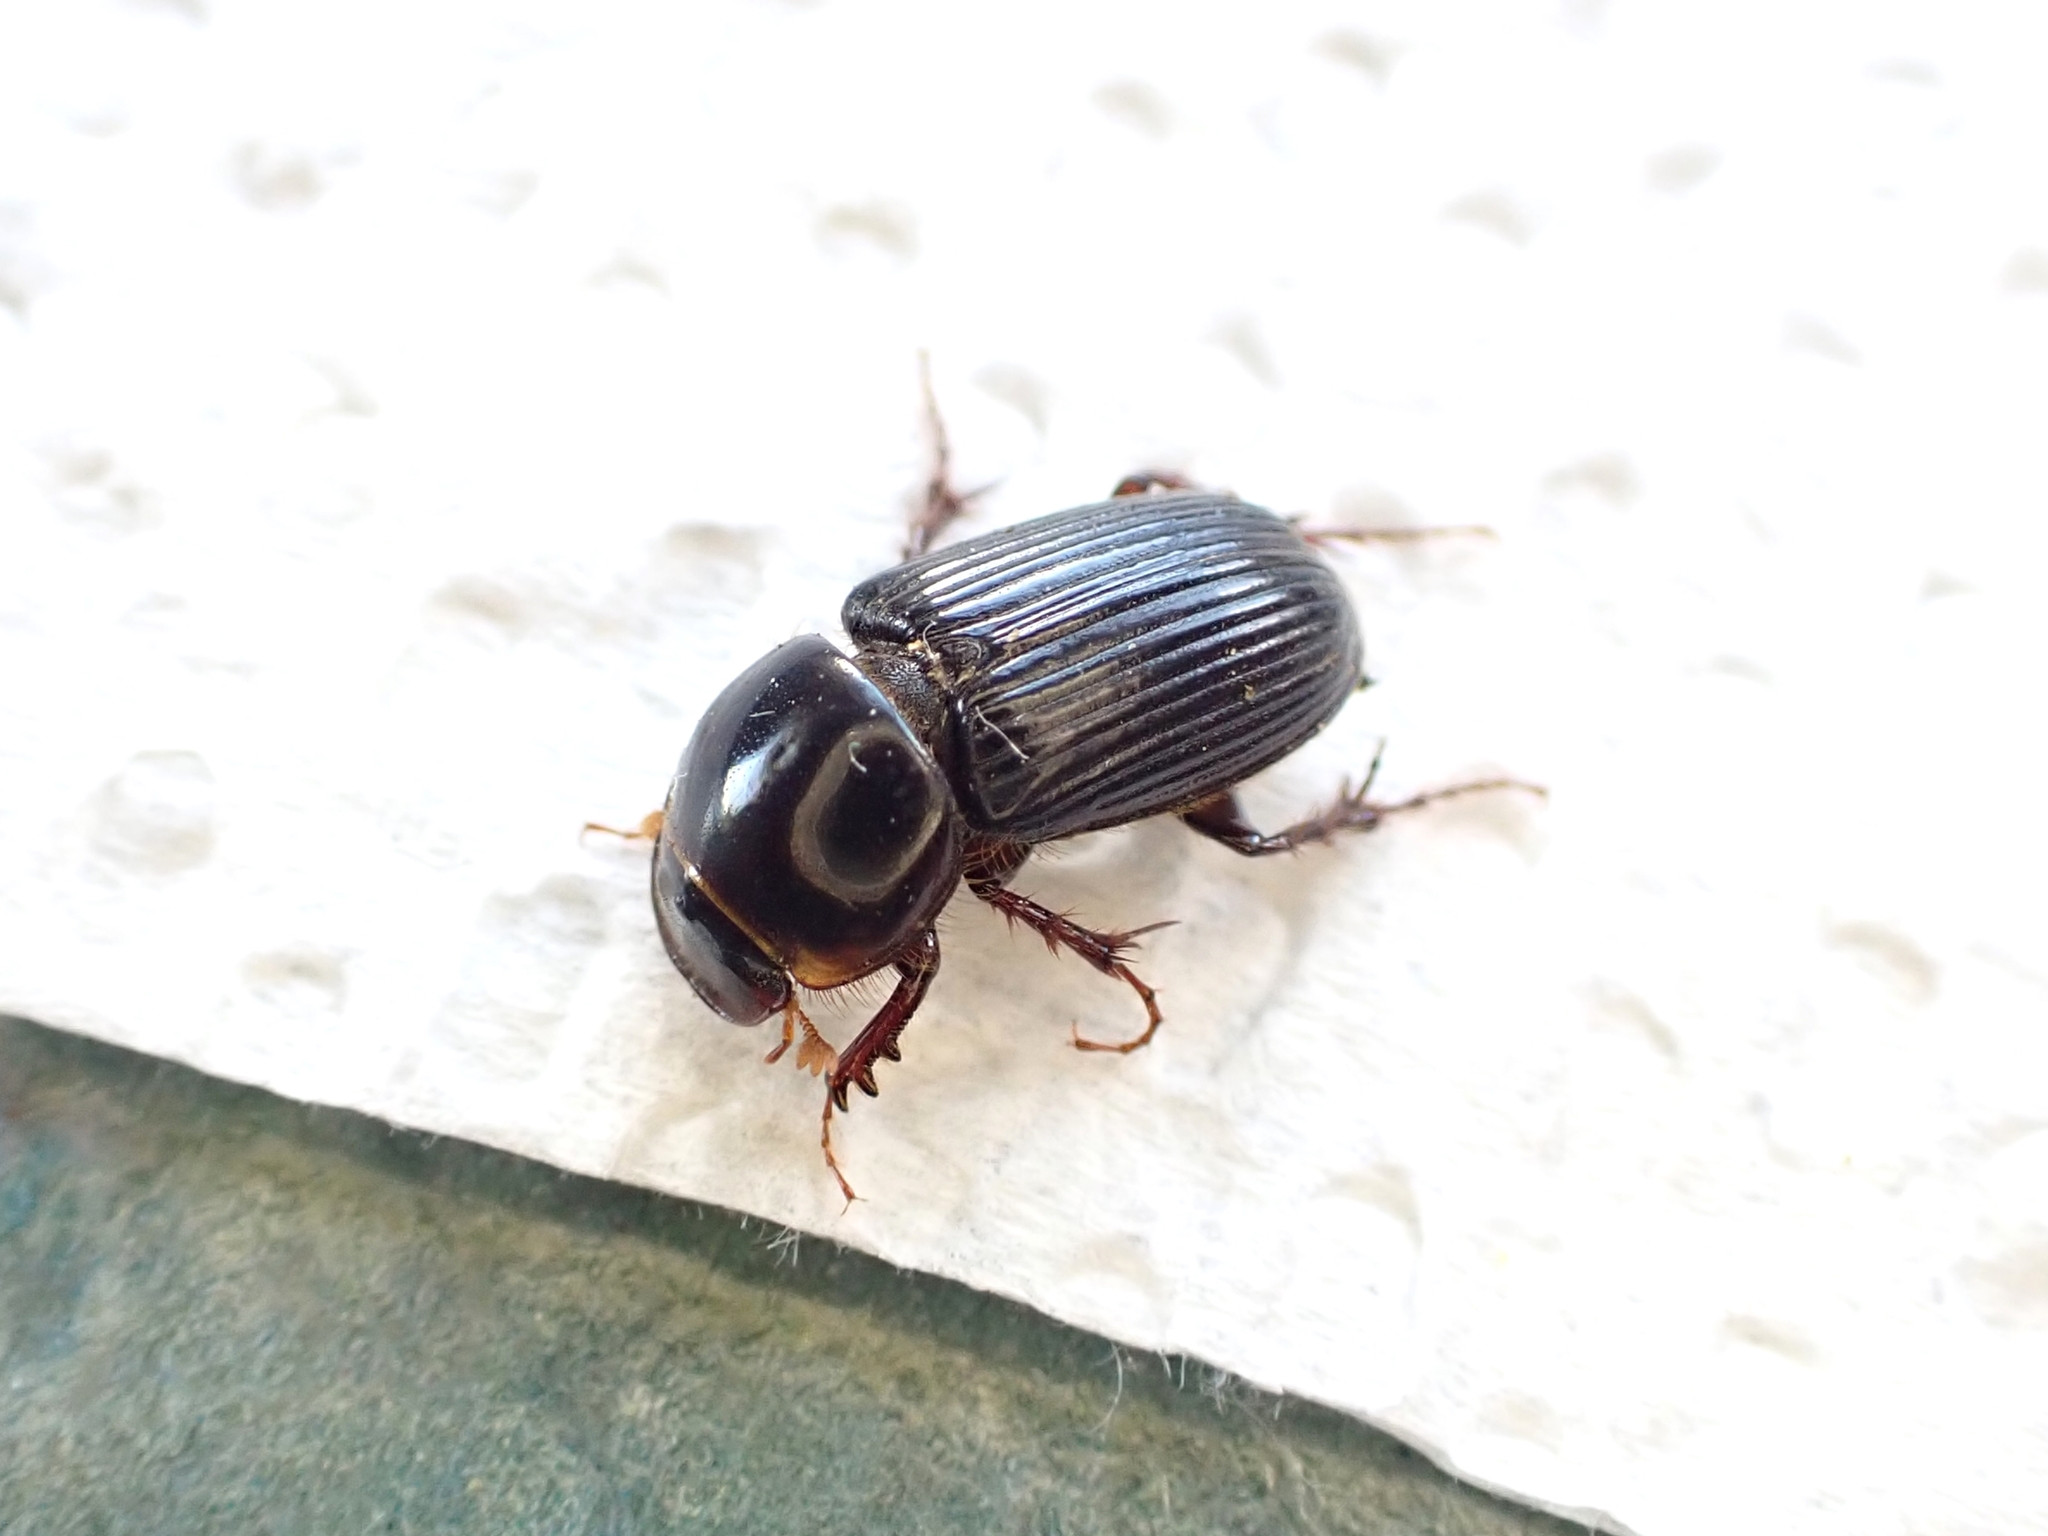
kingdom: Animalia
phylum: Arthropoda
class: Insecta
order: Coleoptera
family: Scarabaeidae
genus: Acrossidius
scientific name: Acrossidius tasmaniae
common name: Black-headed pasture cockchafer
